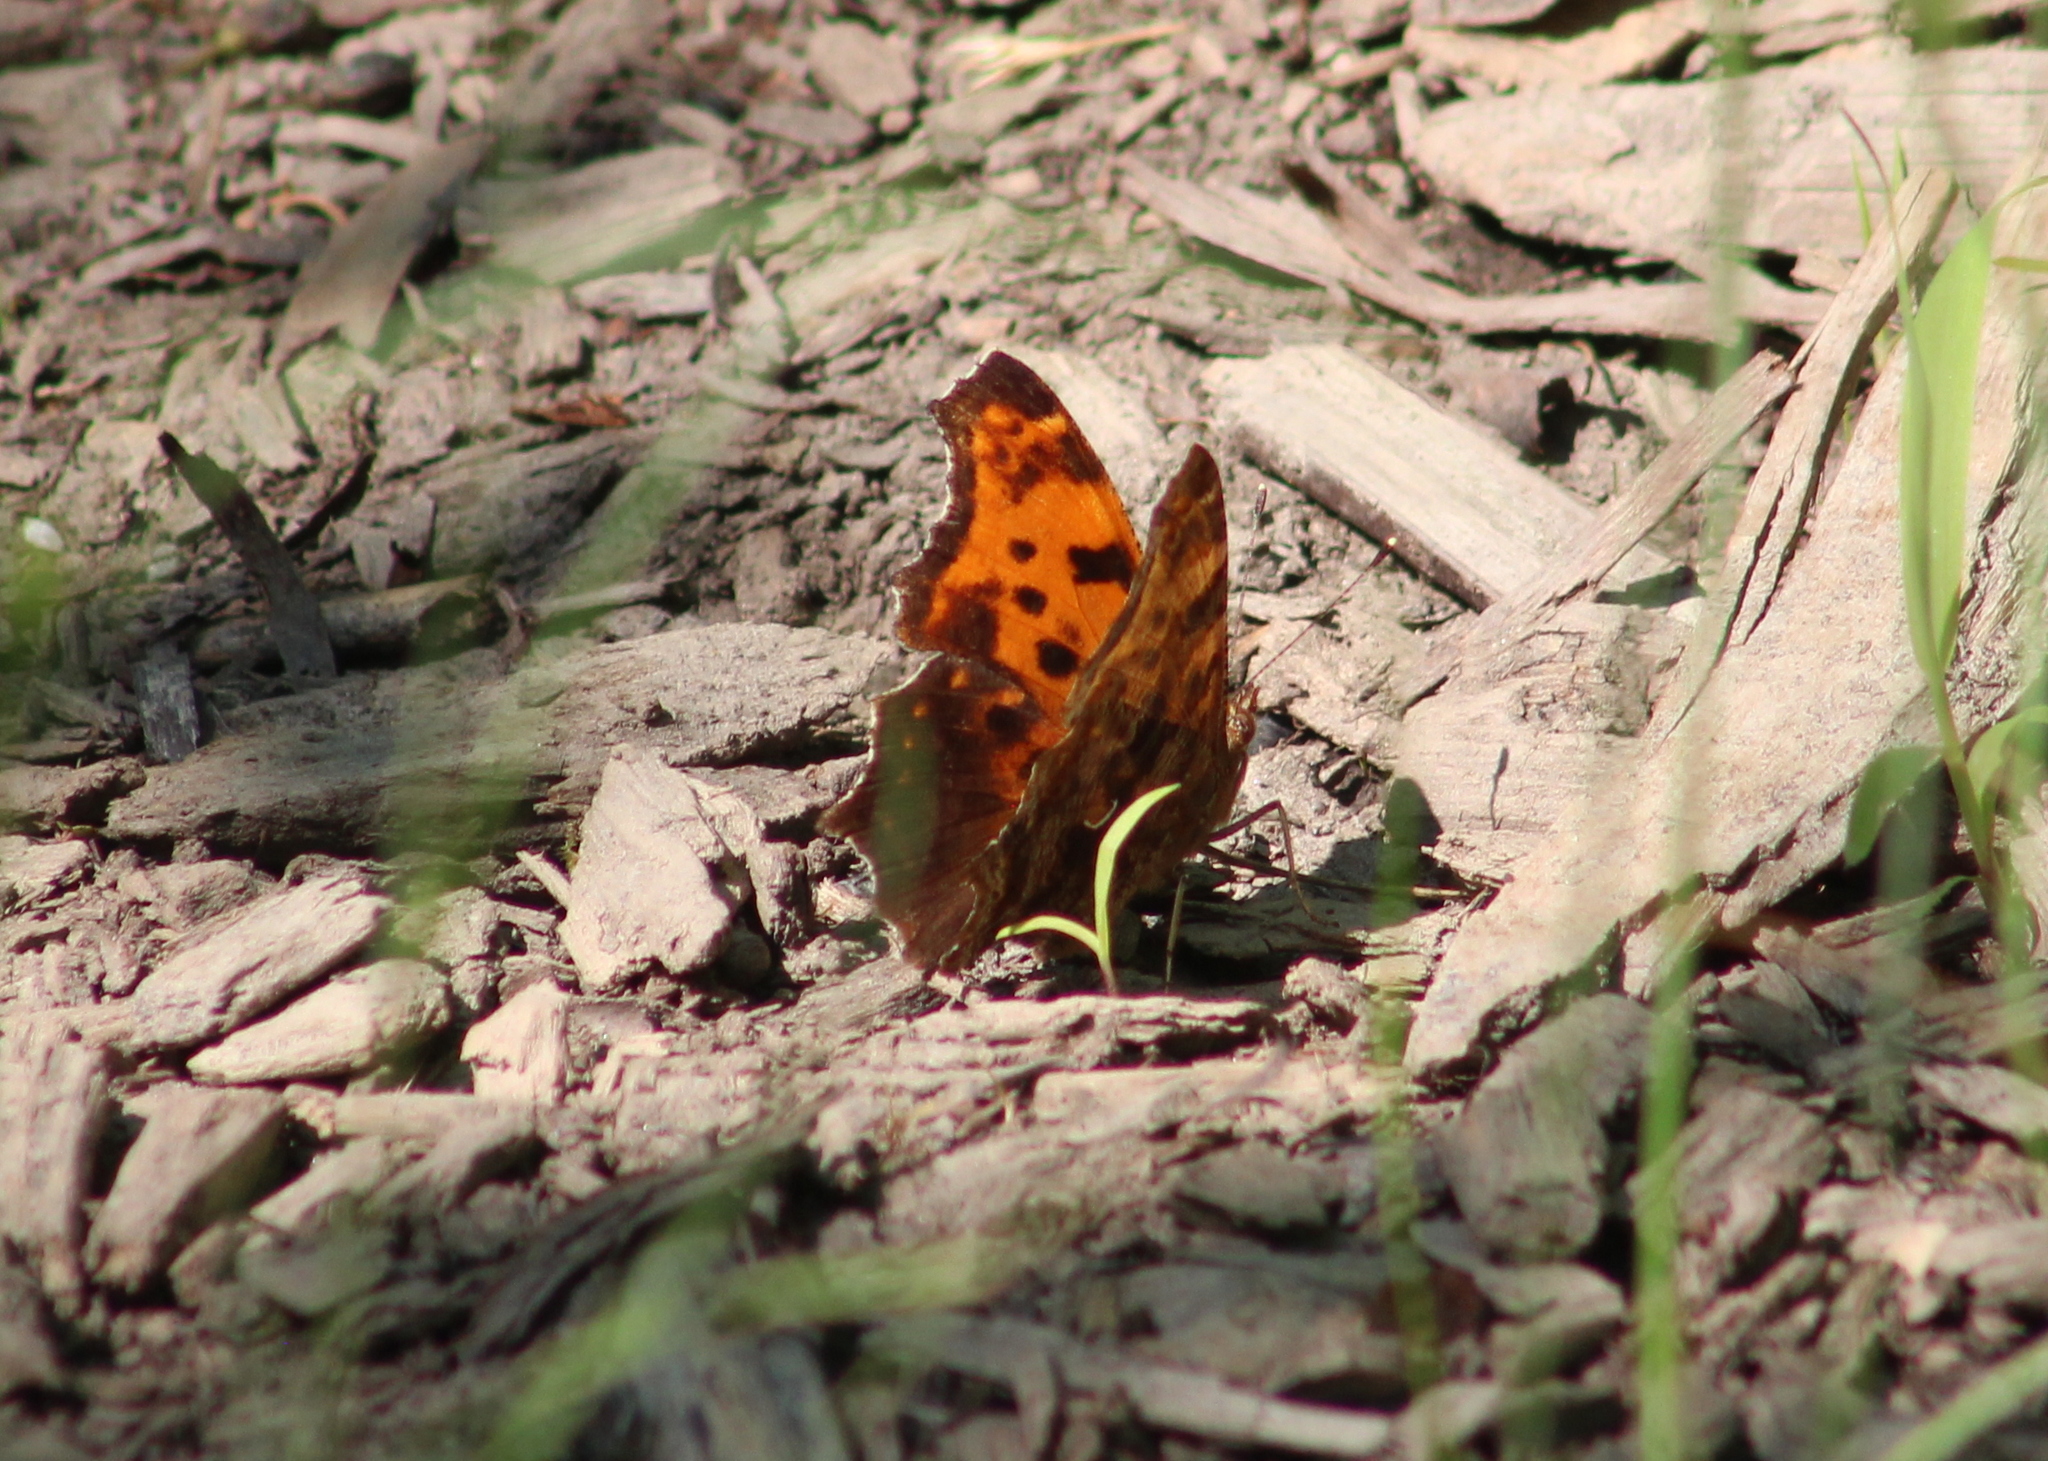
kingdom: Animalia
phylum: Arthropoda
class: Insecta
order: Lepidoptera
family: Nymphalidae
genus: Polygonia
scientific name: Polygonia comma
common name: Eastern comma
